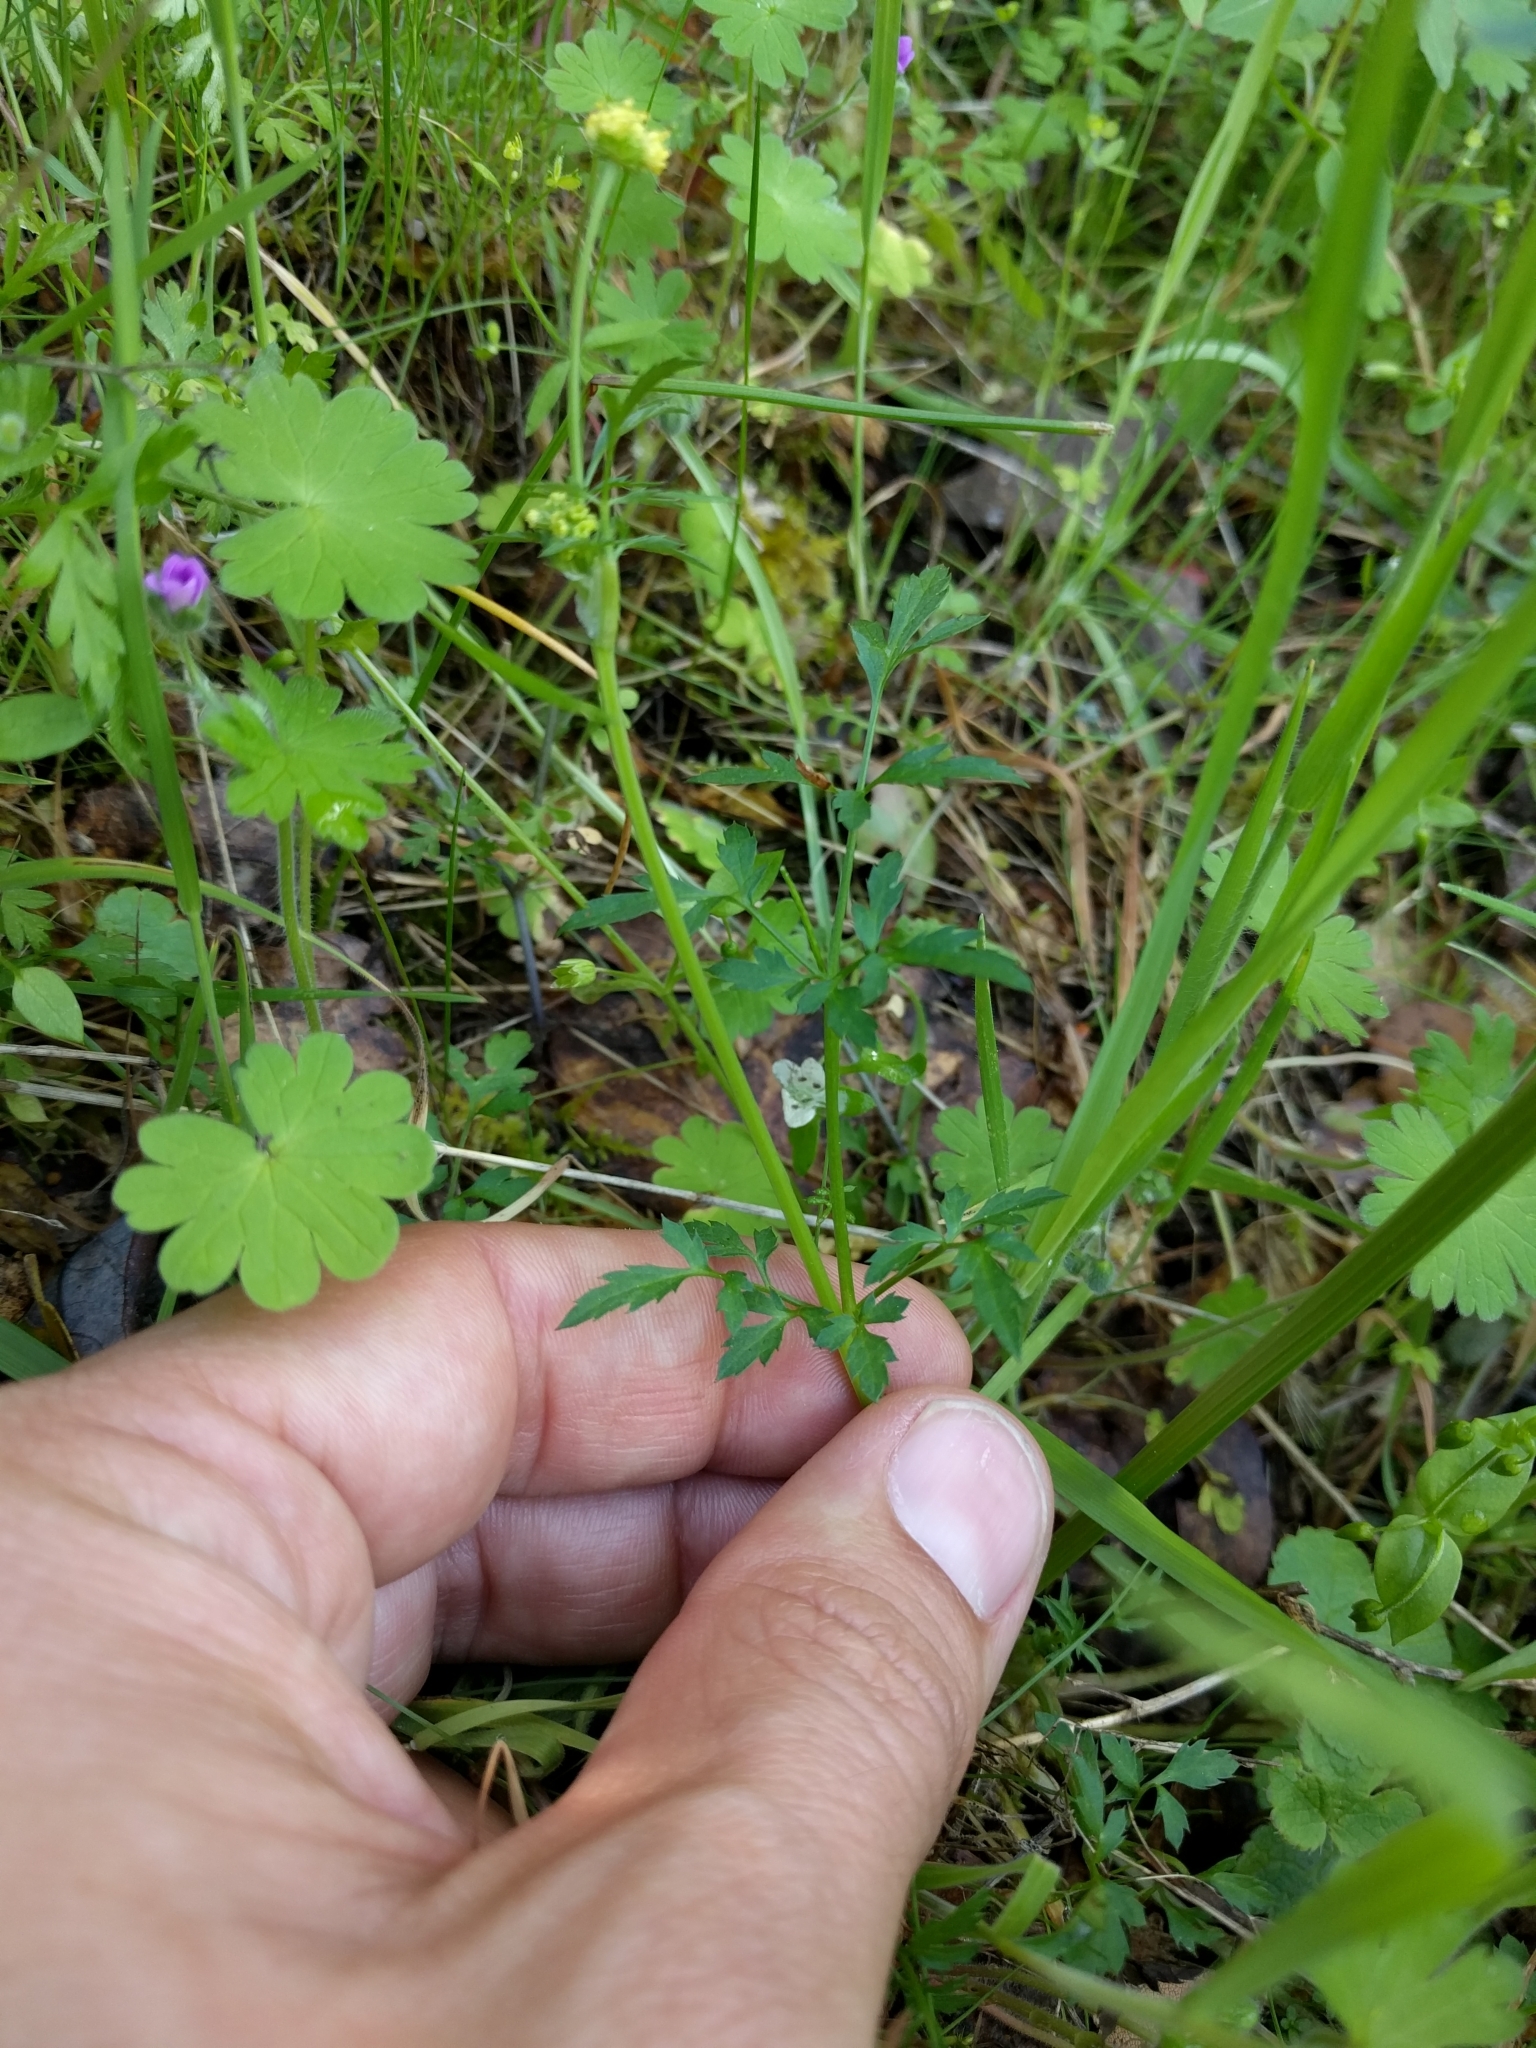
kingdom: Plantae
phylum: Tracheophyta
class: Magnoliopsida
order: Apiales
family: Apiaceae
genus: Sanicula
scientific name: Sanicula bipinnata
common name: Poison sanicle
